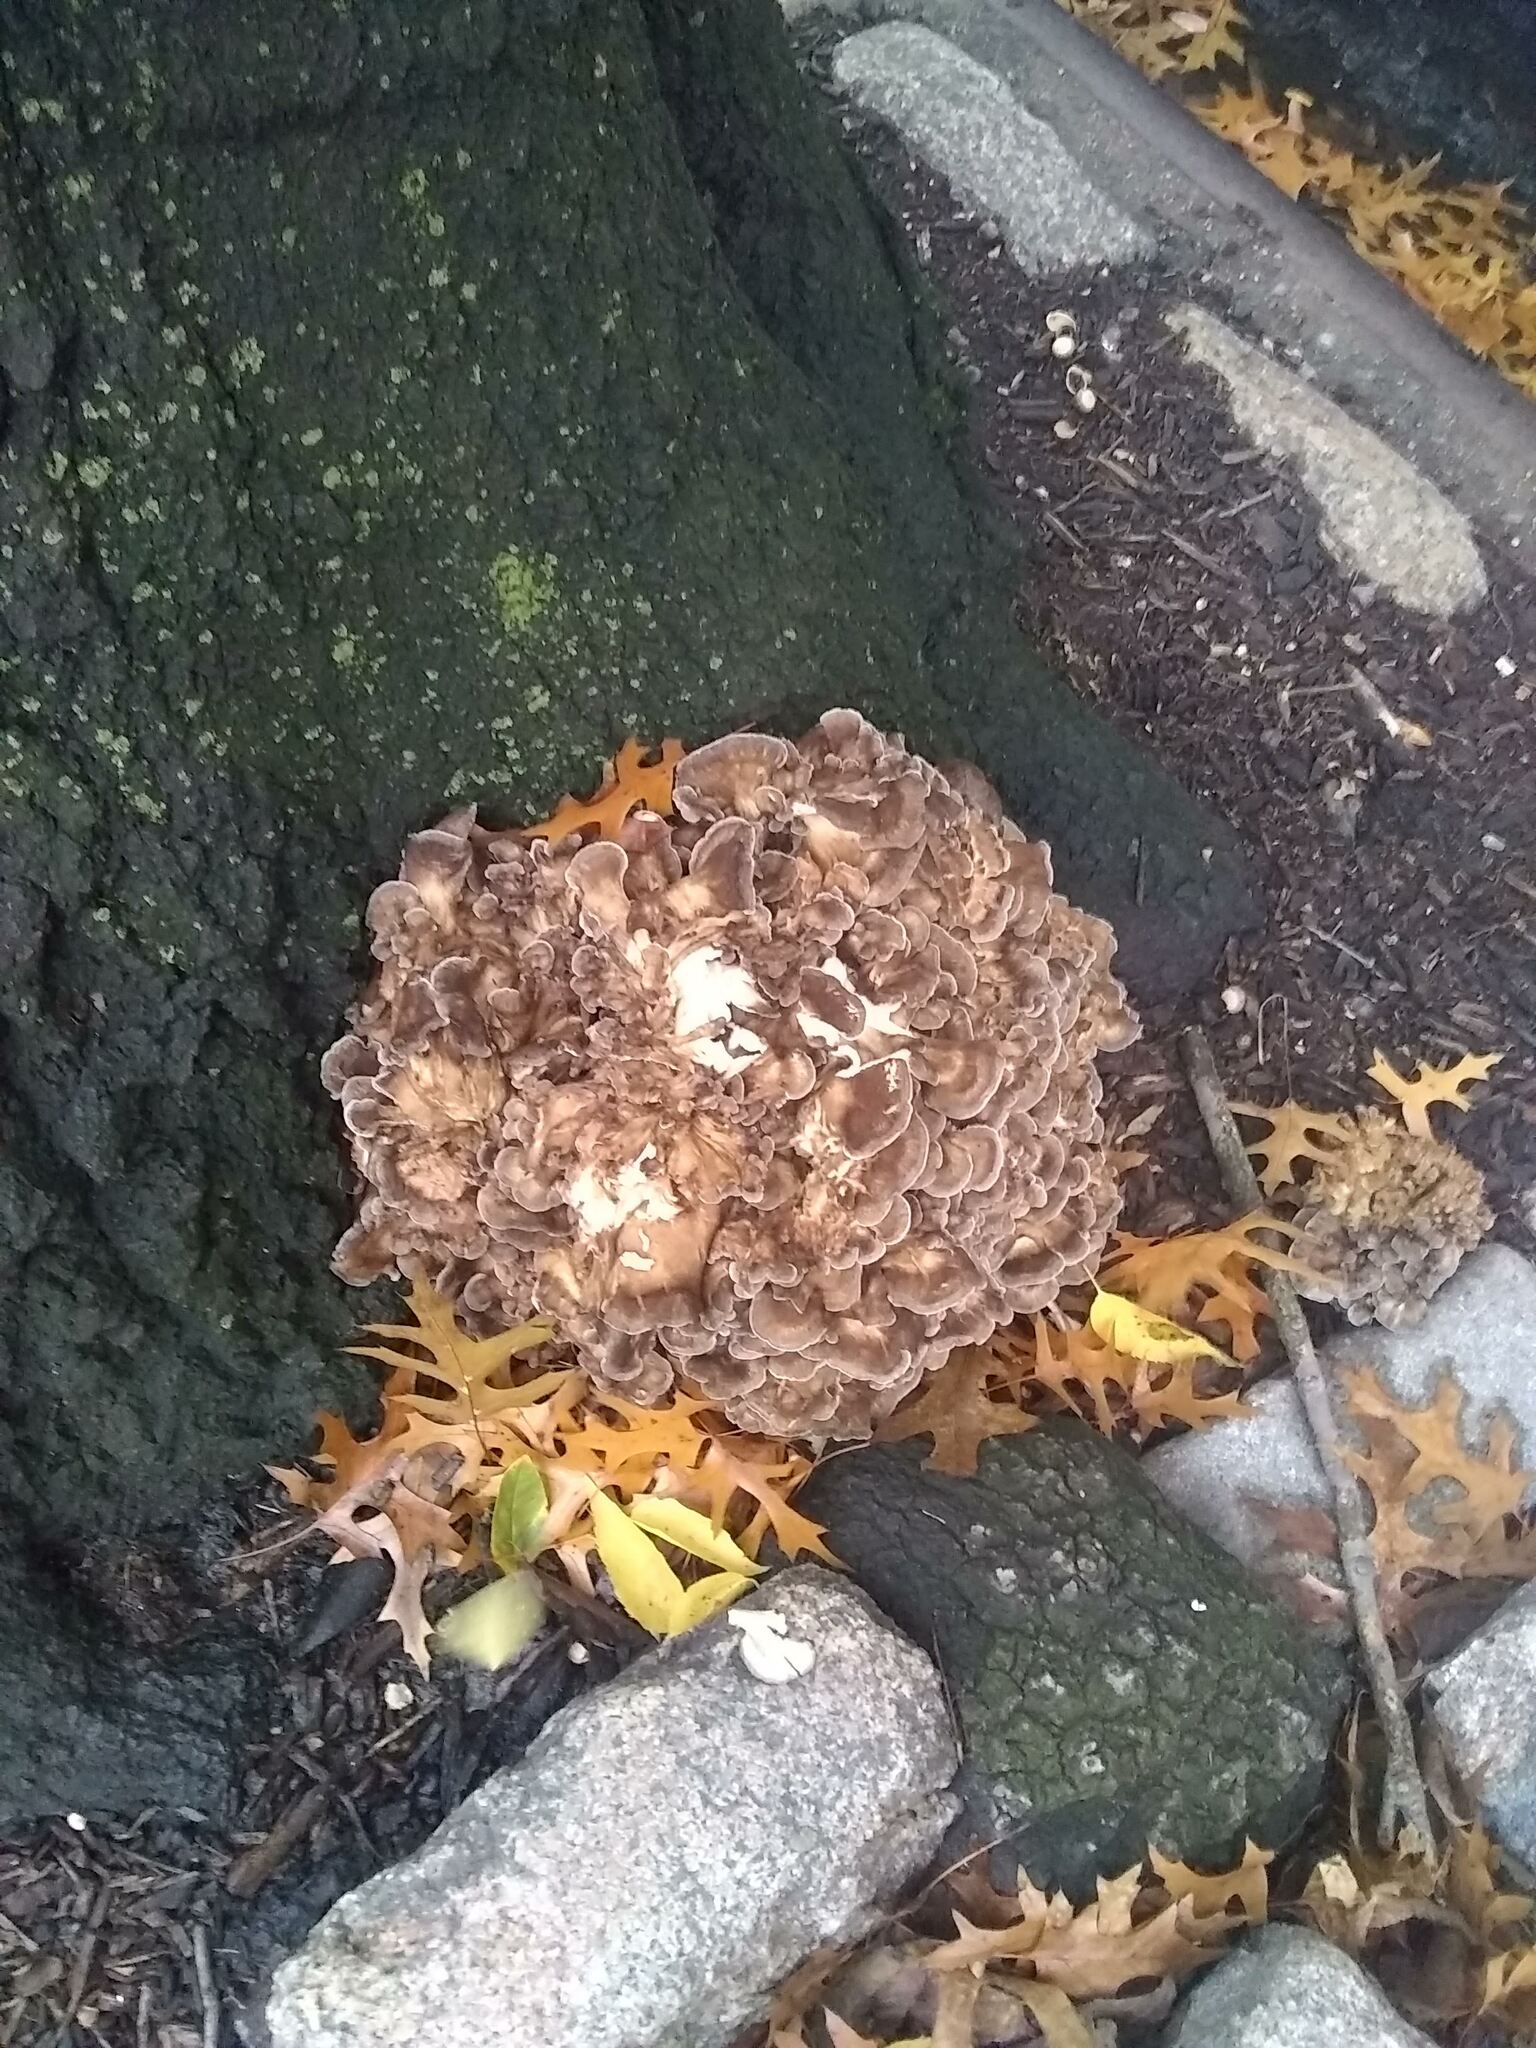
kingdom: Fungi
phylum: Basidiomycota
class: Agaricomycetes
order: Polyporales
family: Grifolaceae
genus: Grifola
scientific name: Grifola frondosa
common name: Hen of the woods
